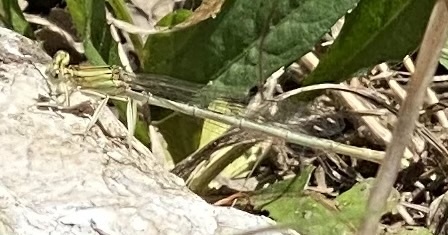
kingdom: Animalia
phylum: Arthropoda
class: Insecta
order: Odonata
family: Platycnemididae
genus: Platycnemis
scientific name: Platycnemis pennipes
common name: White-legged damselfly
